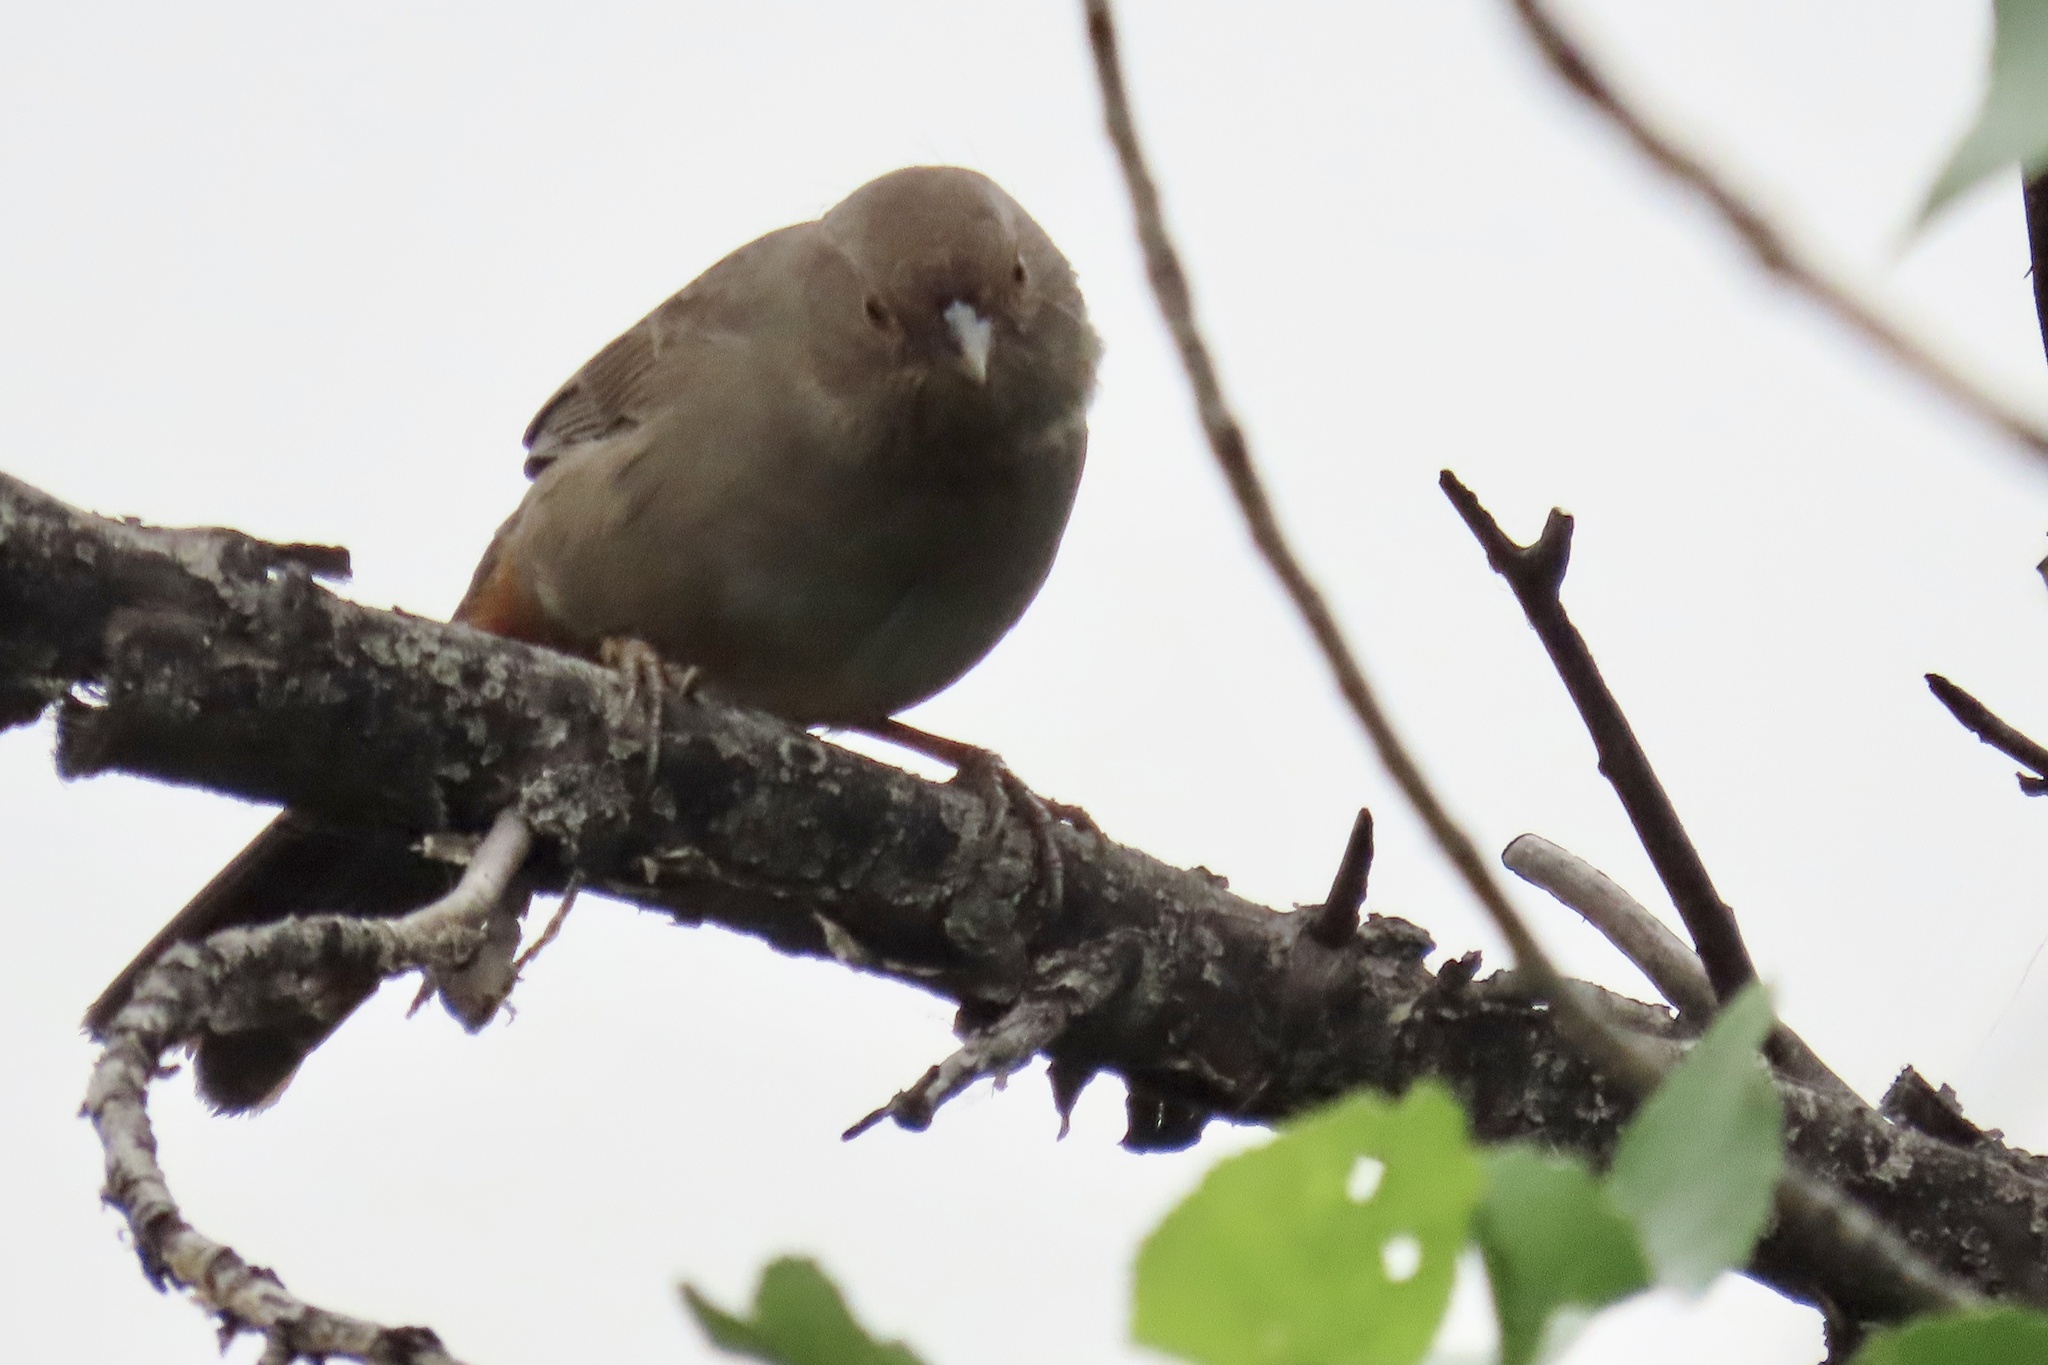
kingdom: Animalia
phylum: Chordata
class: Aves
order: Passeriformes
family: Passerellidae
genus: Melozone
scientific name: Melozone crissalis
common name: California towhee
